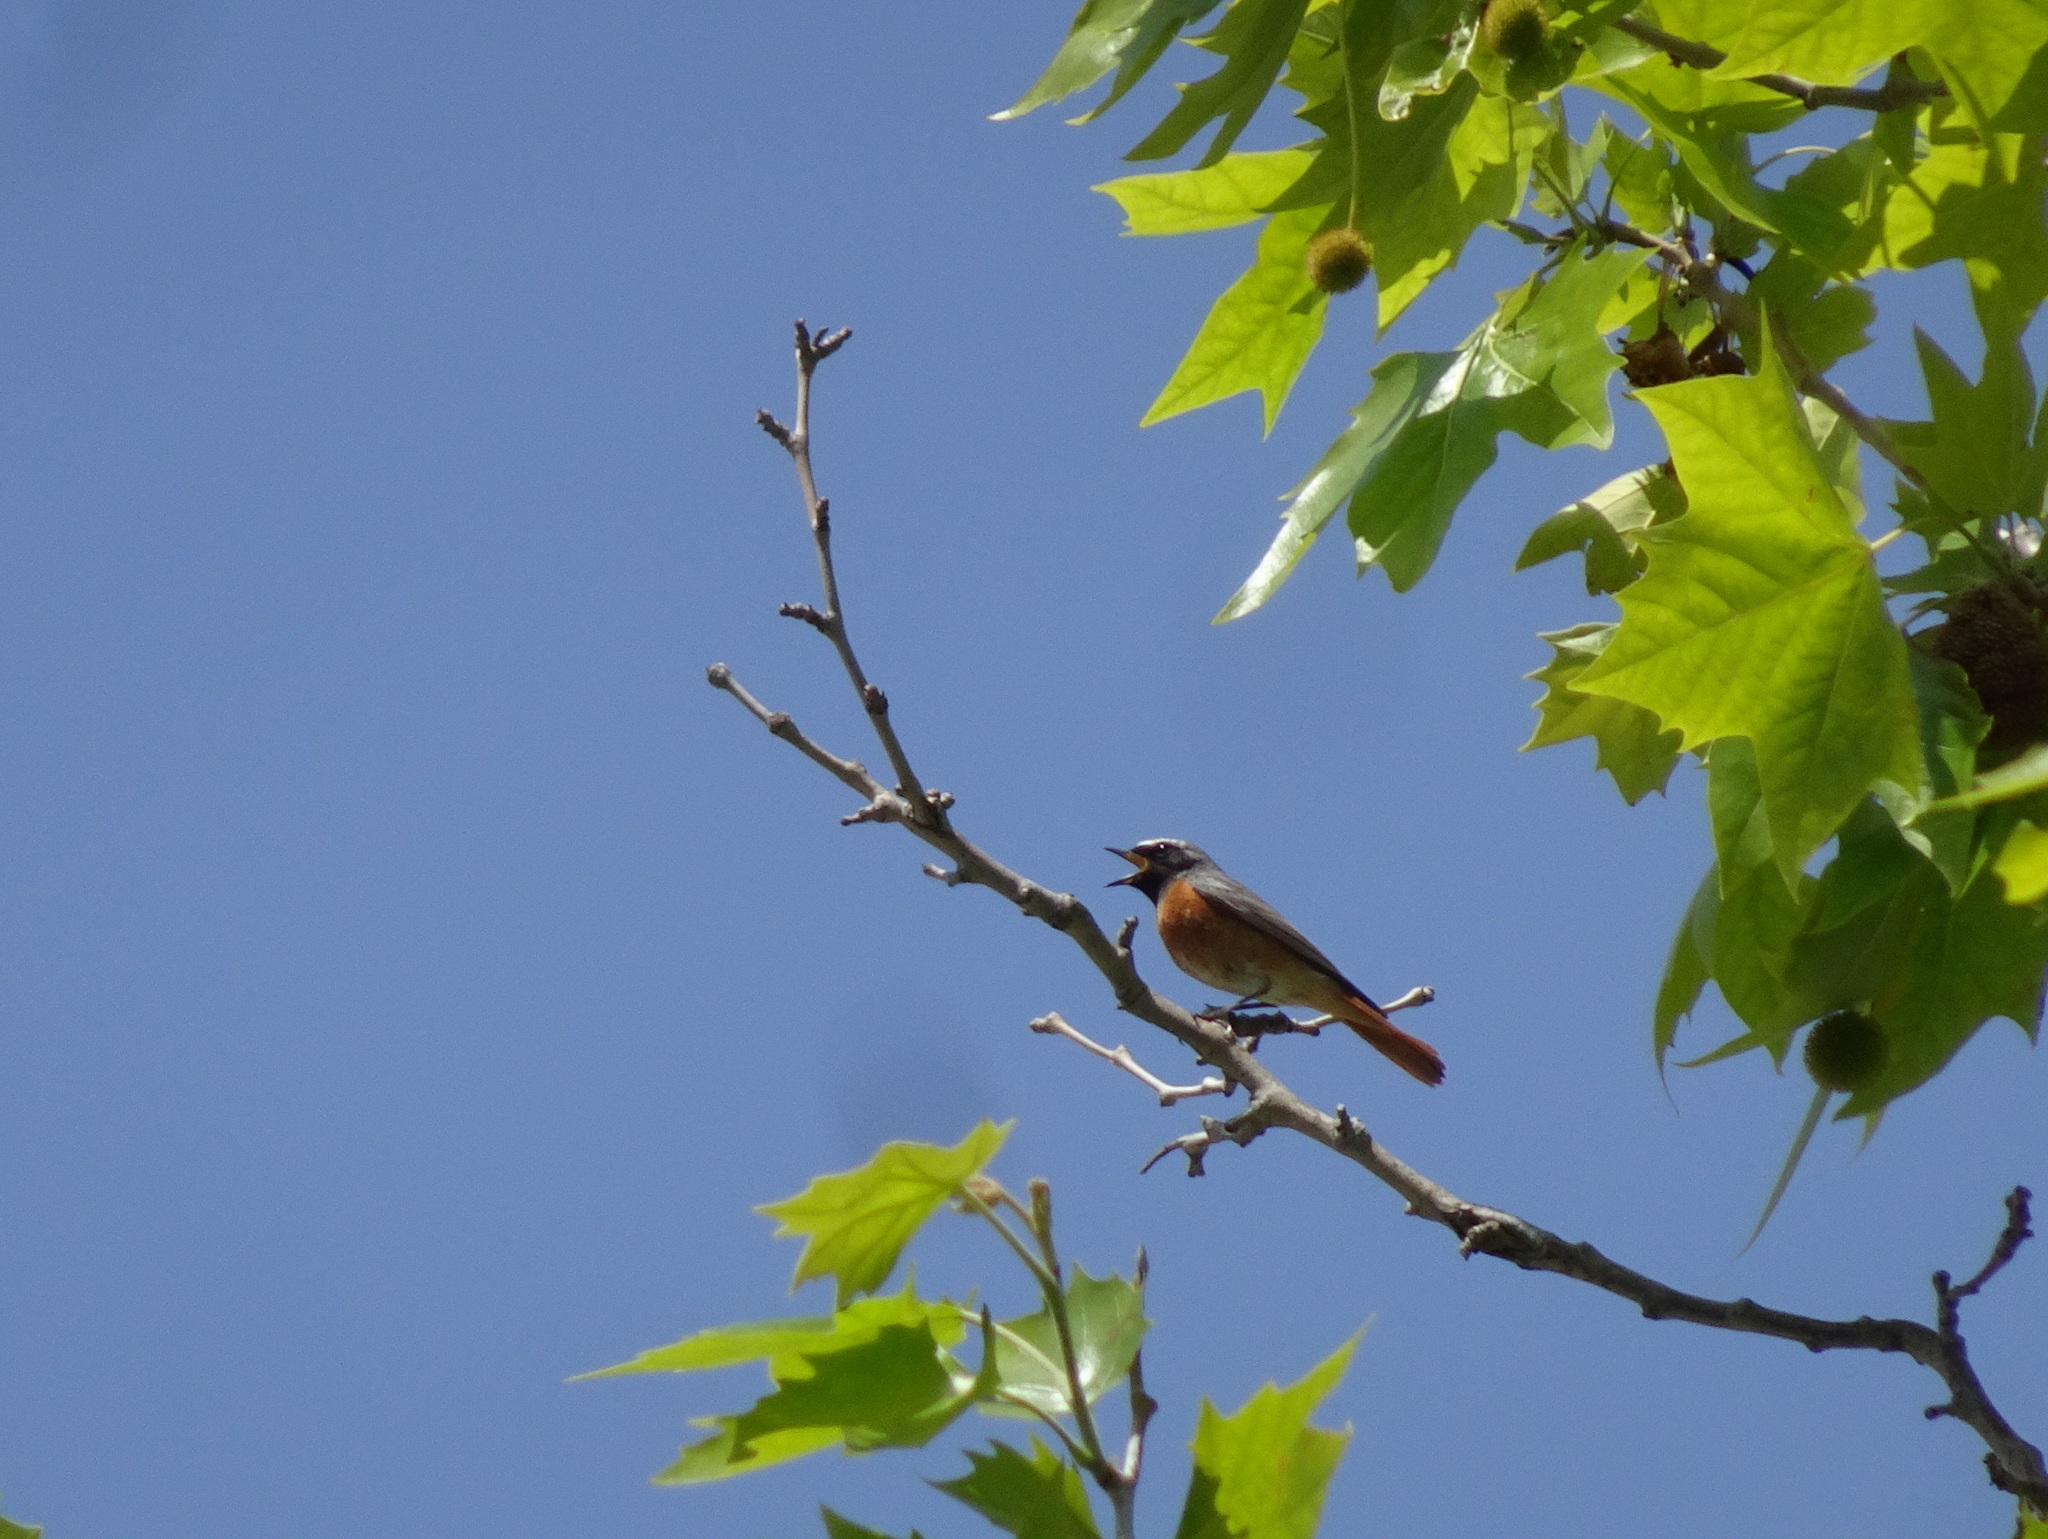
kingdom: Animalia
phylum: Chordata
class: Aves
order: Passeriformes
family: Muscicapidae
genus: Phoenicurus
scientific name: Phoenicurus phoenicurus
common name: Common redstart
